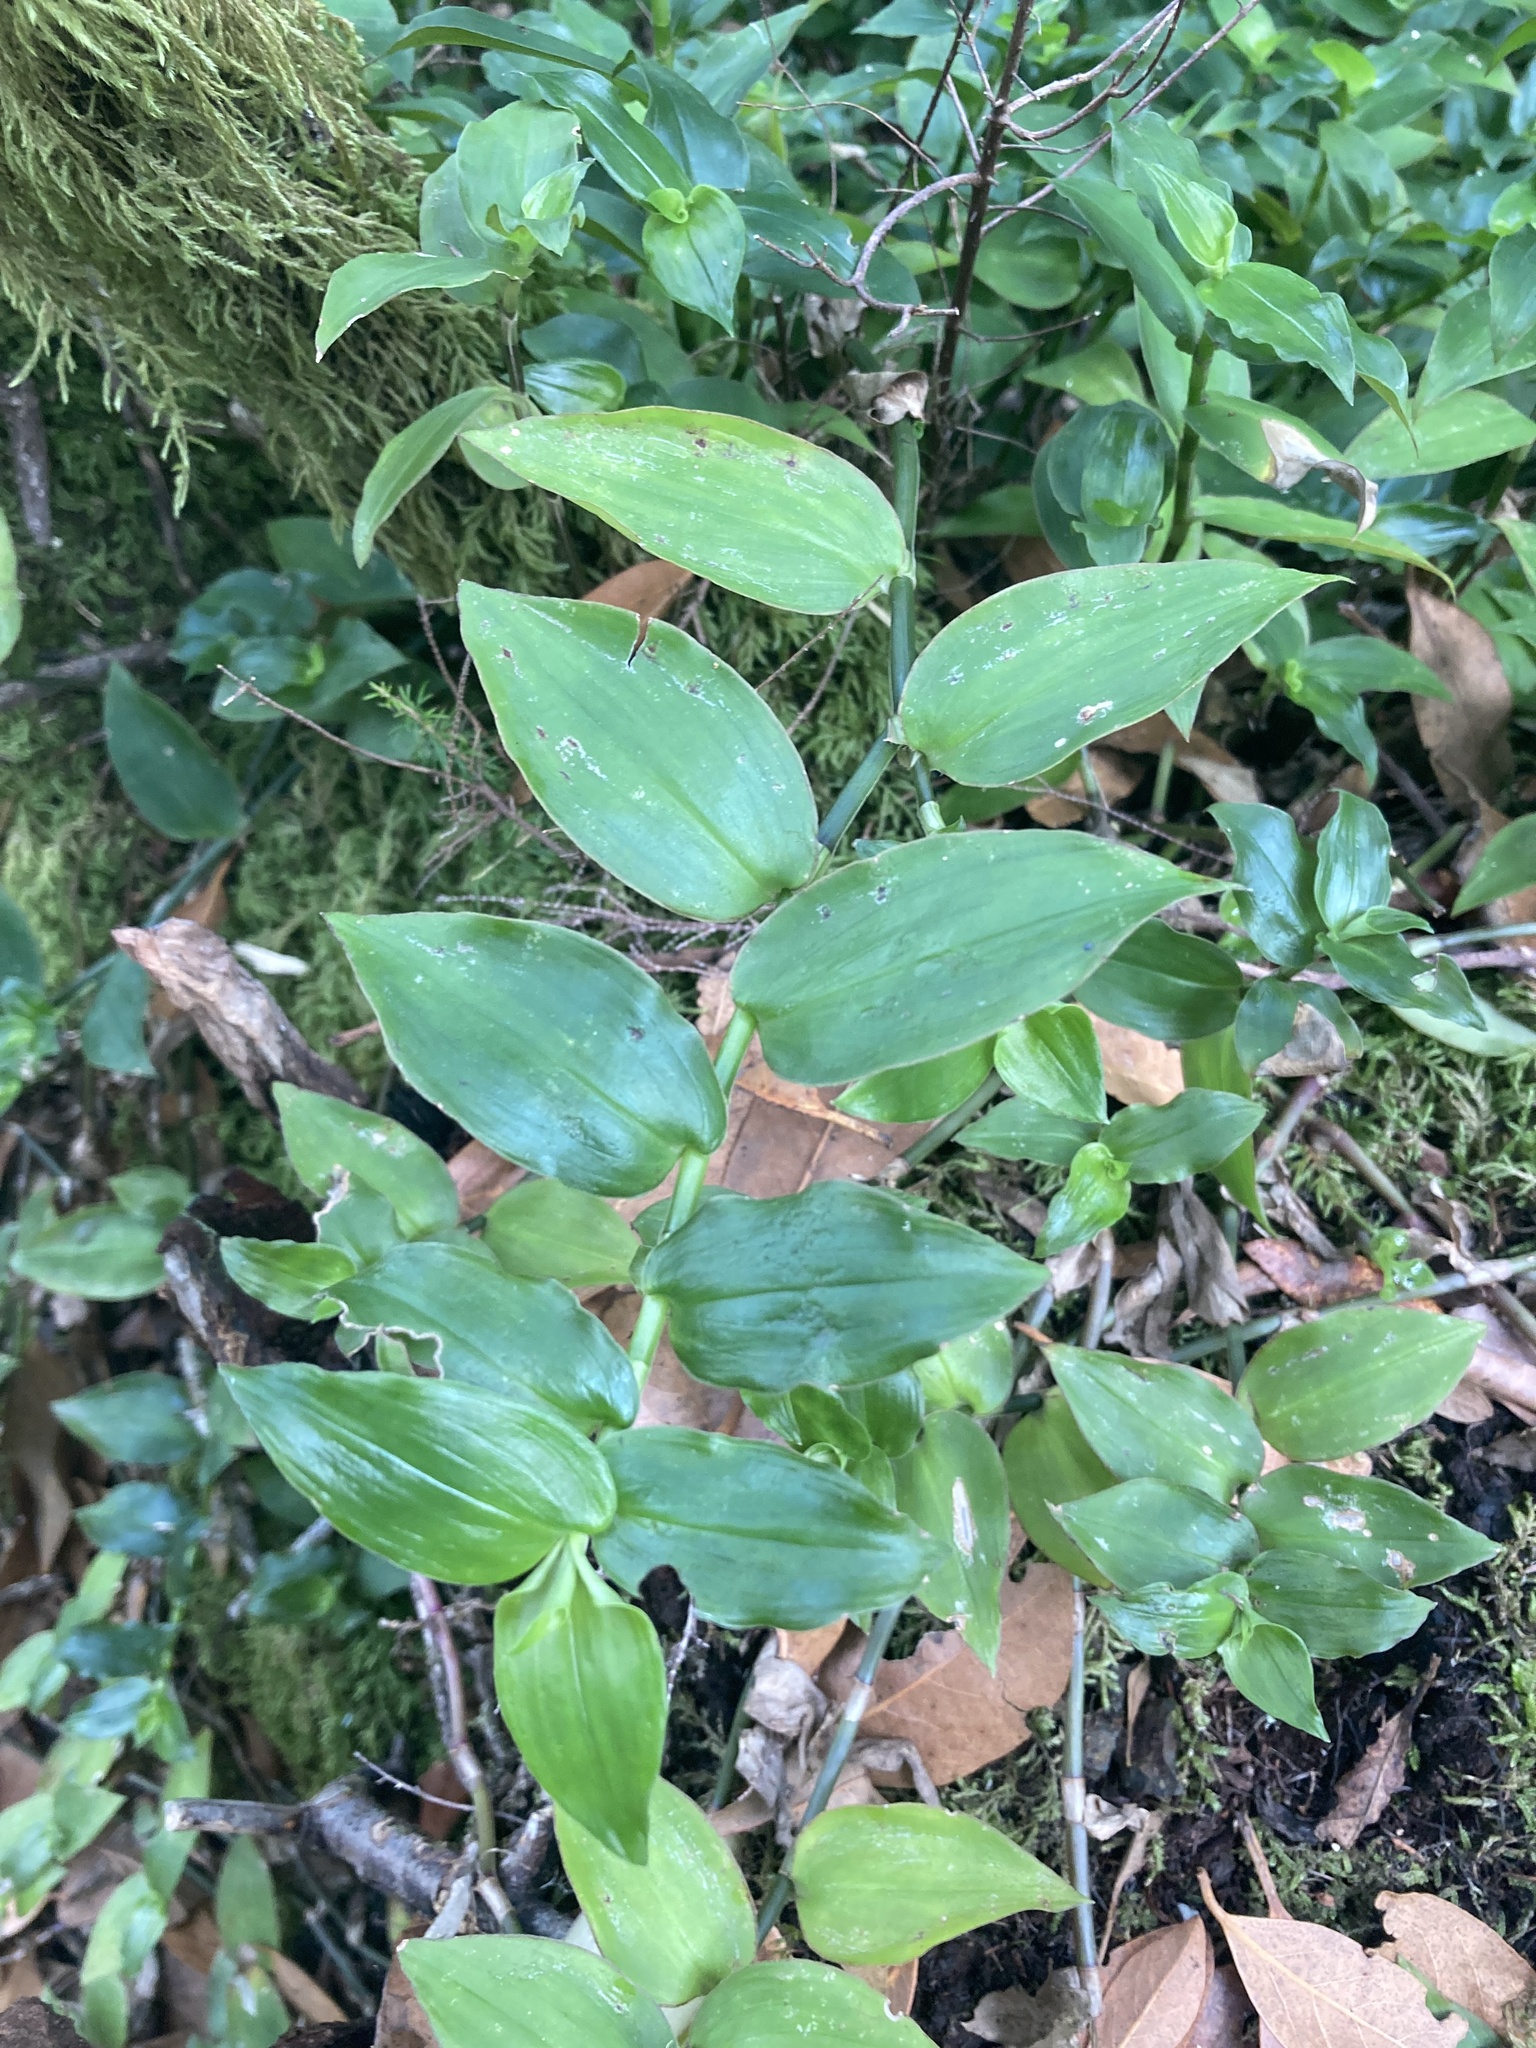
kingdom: Plantae
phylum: Tracheophyta
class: Liliopsida
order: Commelinales
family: Commelinaceae
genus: Tradescantia
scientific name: Tradescantia fluminensis
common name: Wandering-jew
